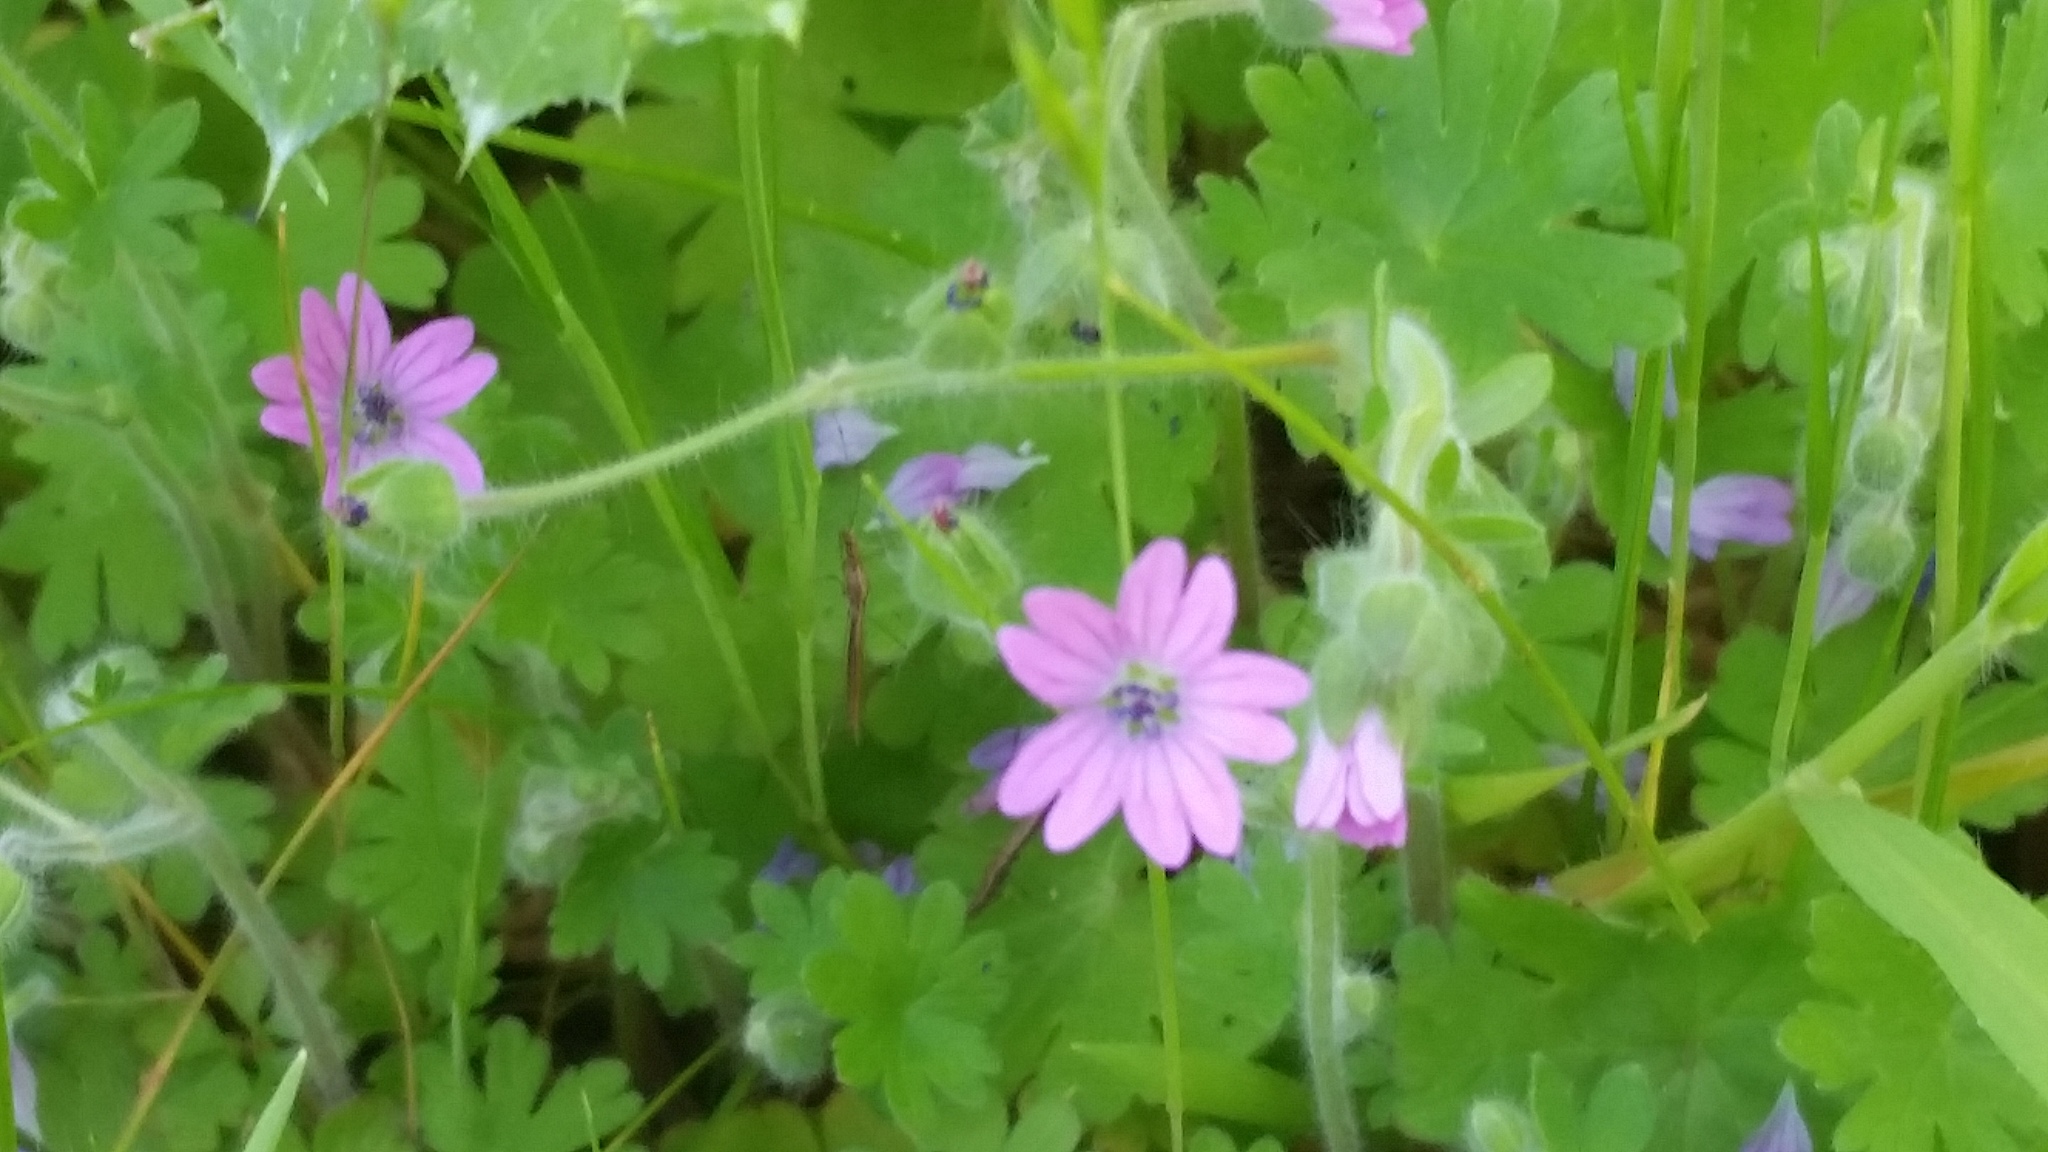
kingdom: Plantae
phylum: Tracheophyta
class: Magnoliopsida
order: Geraniales
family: Geraniaceae
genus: Geranium
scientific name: Geranium molle
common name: Dove's-foot crane's-bill
